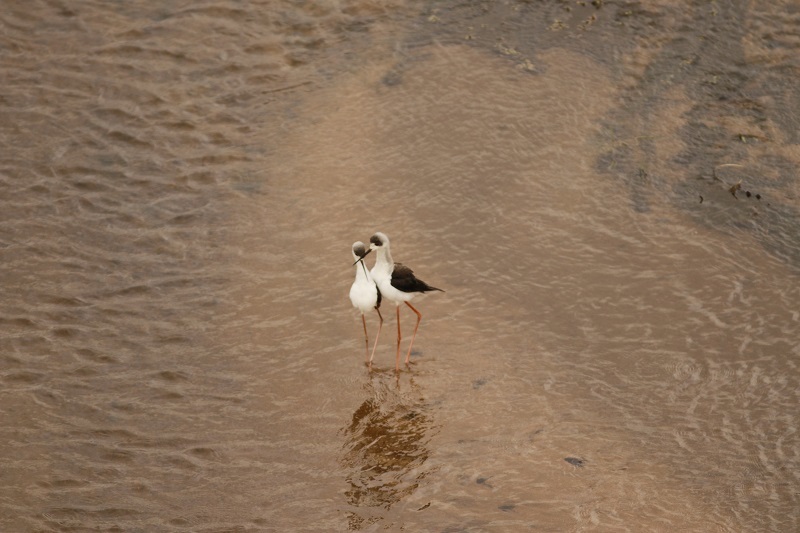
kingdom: Animalia
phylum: Chordata
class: Aves
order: Charadriiformes
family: Recurvirostridae
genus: Himantopus
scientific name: Himantopus himantopus
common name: Black-winged stilt
